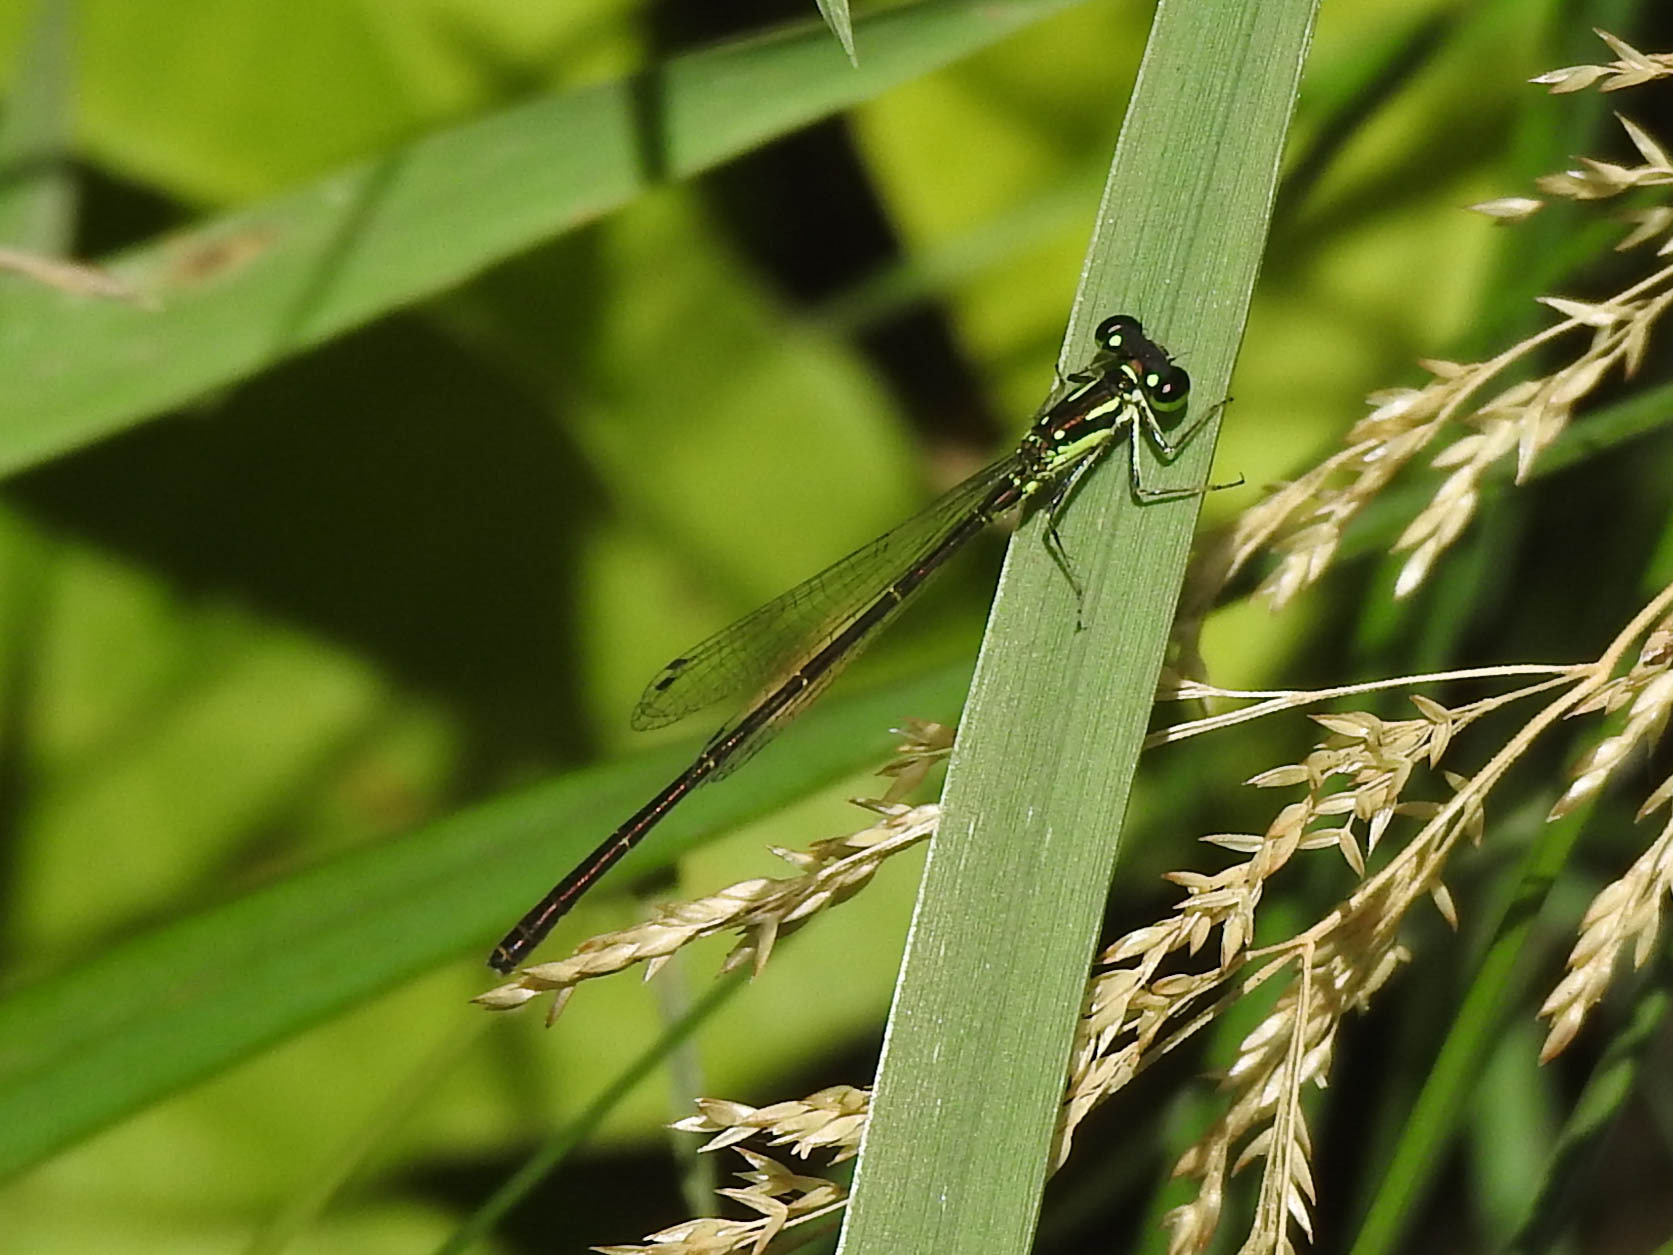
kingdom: Animalia
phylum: Arthropoda
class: Insecta
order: Odonata
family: Coenagrionidae
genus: Ischnura
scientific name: Ischnura posita
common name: Fragile forktail
